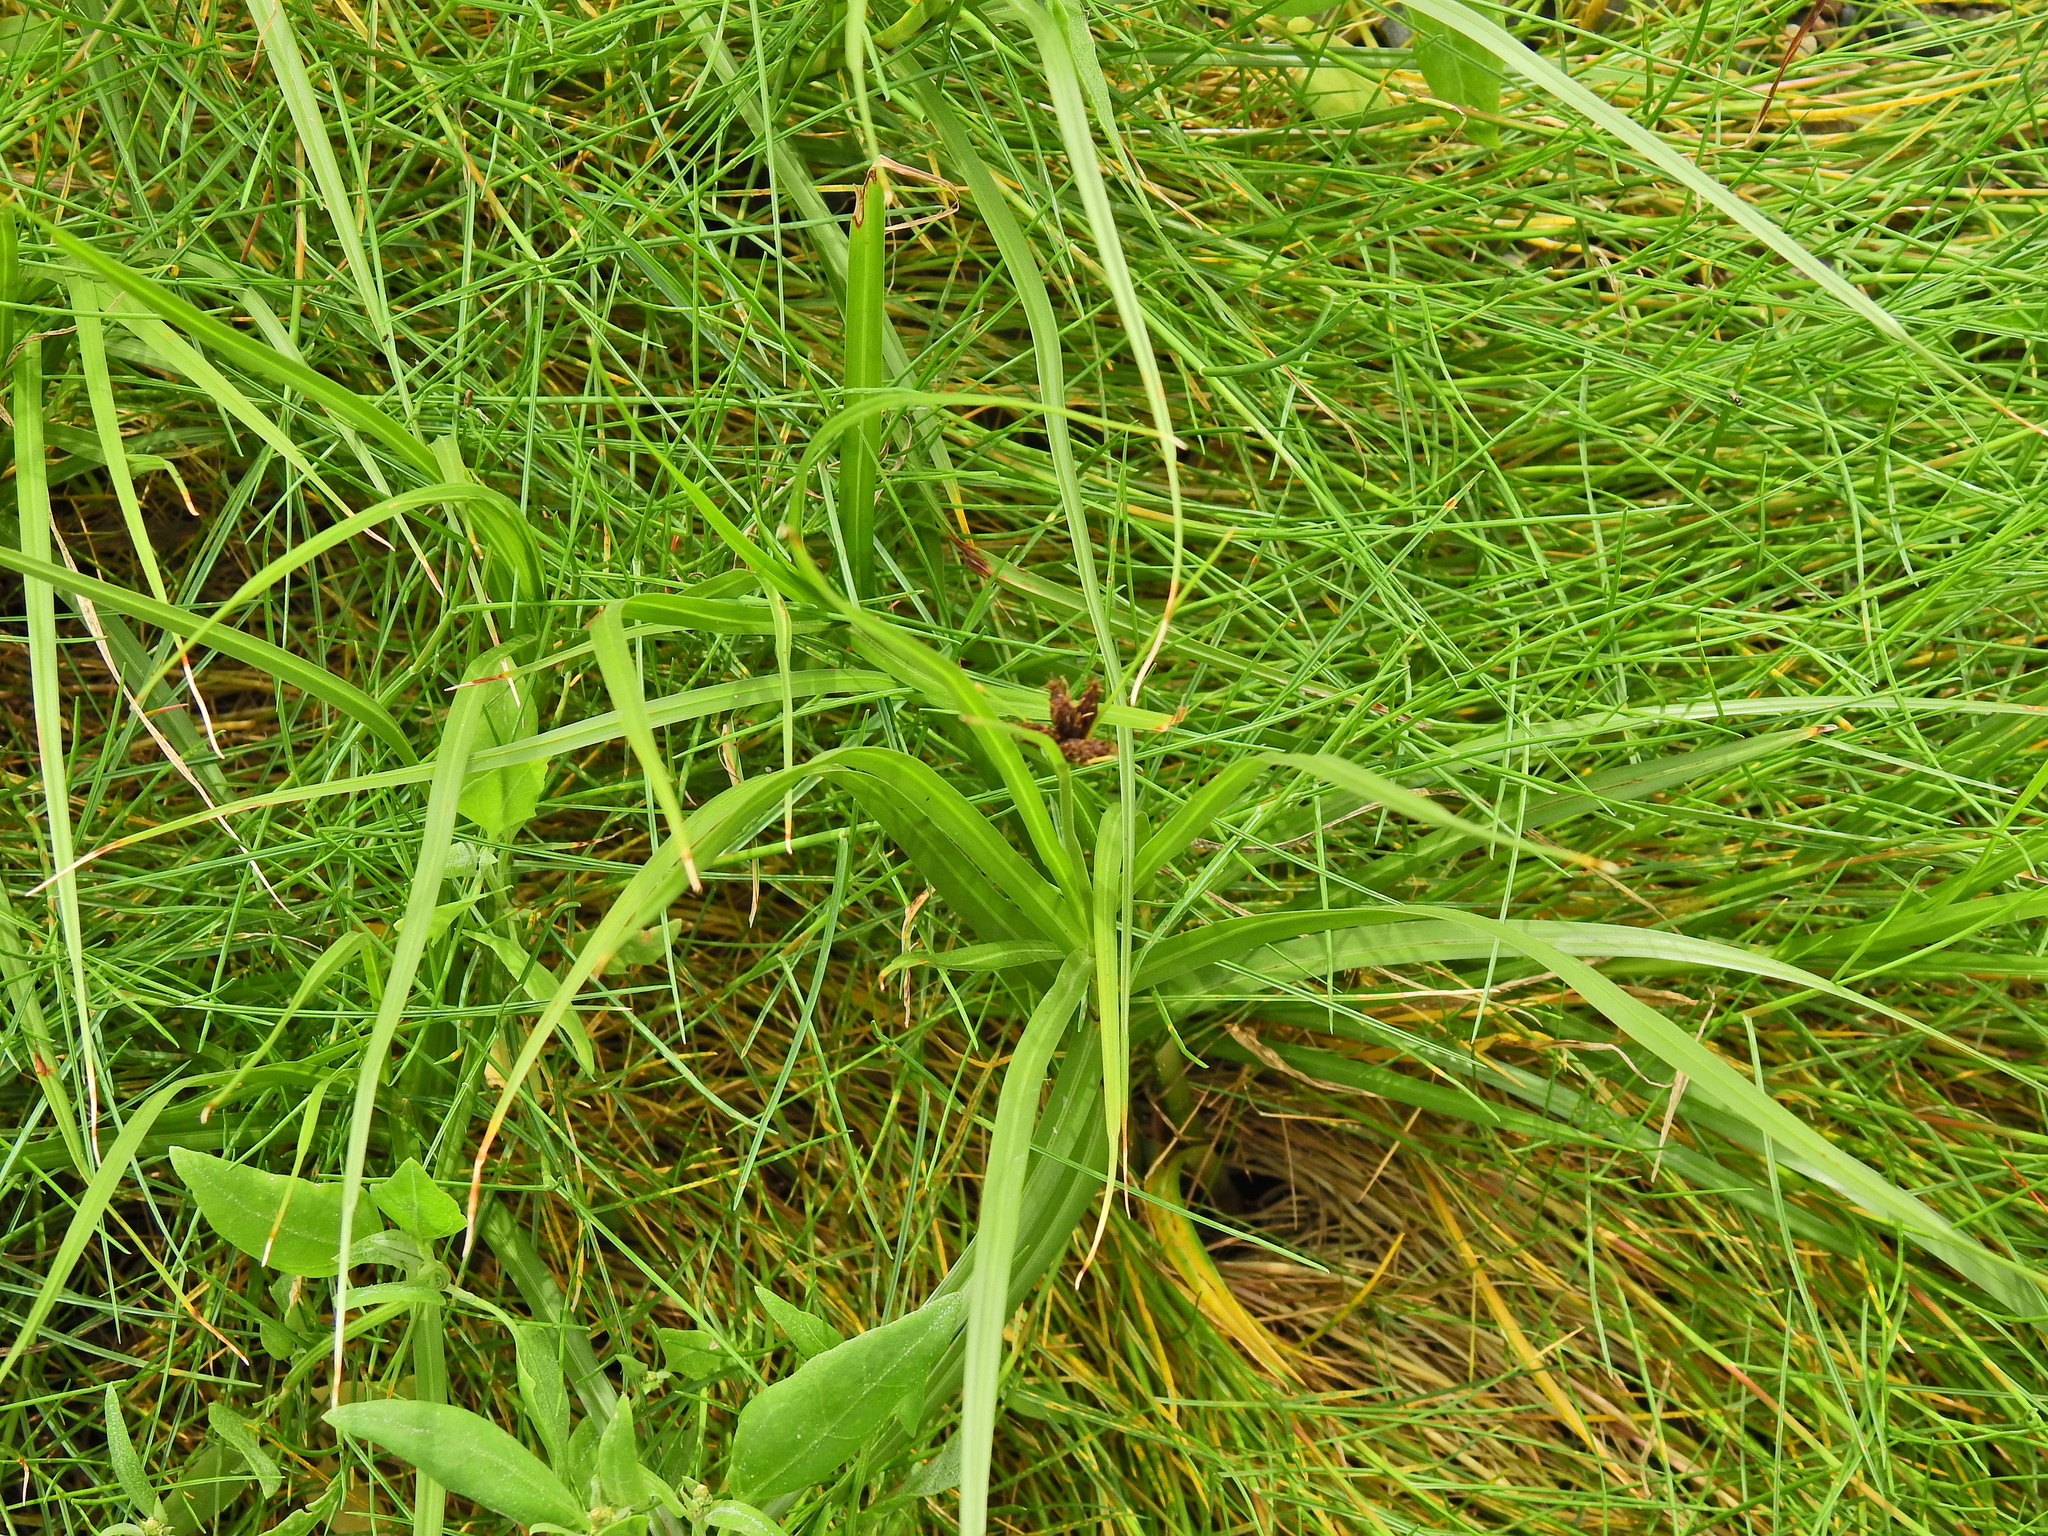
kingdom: Plantae
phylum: Tracheophyta
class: Liliopsida
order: Poales
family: Cyperaceae
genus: Bolboschoenus
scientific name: Bolboschoenus maritimus
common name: Sea club-rush
